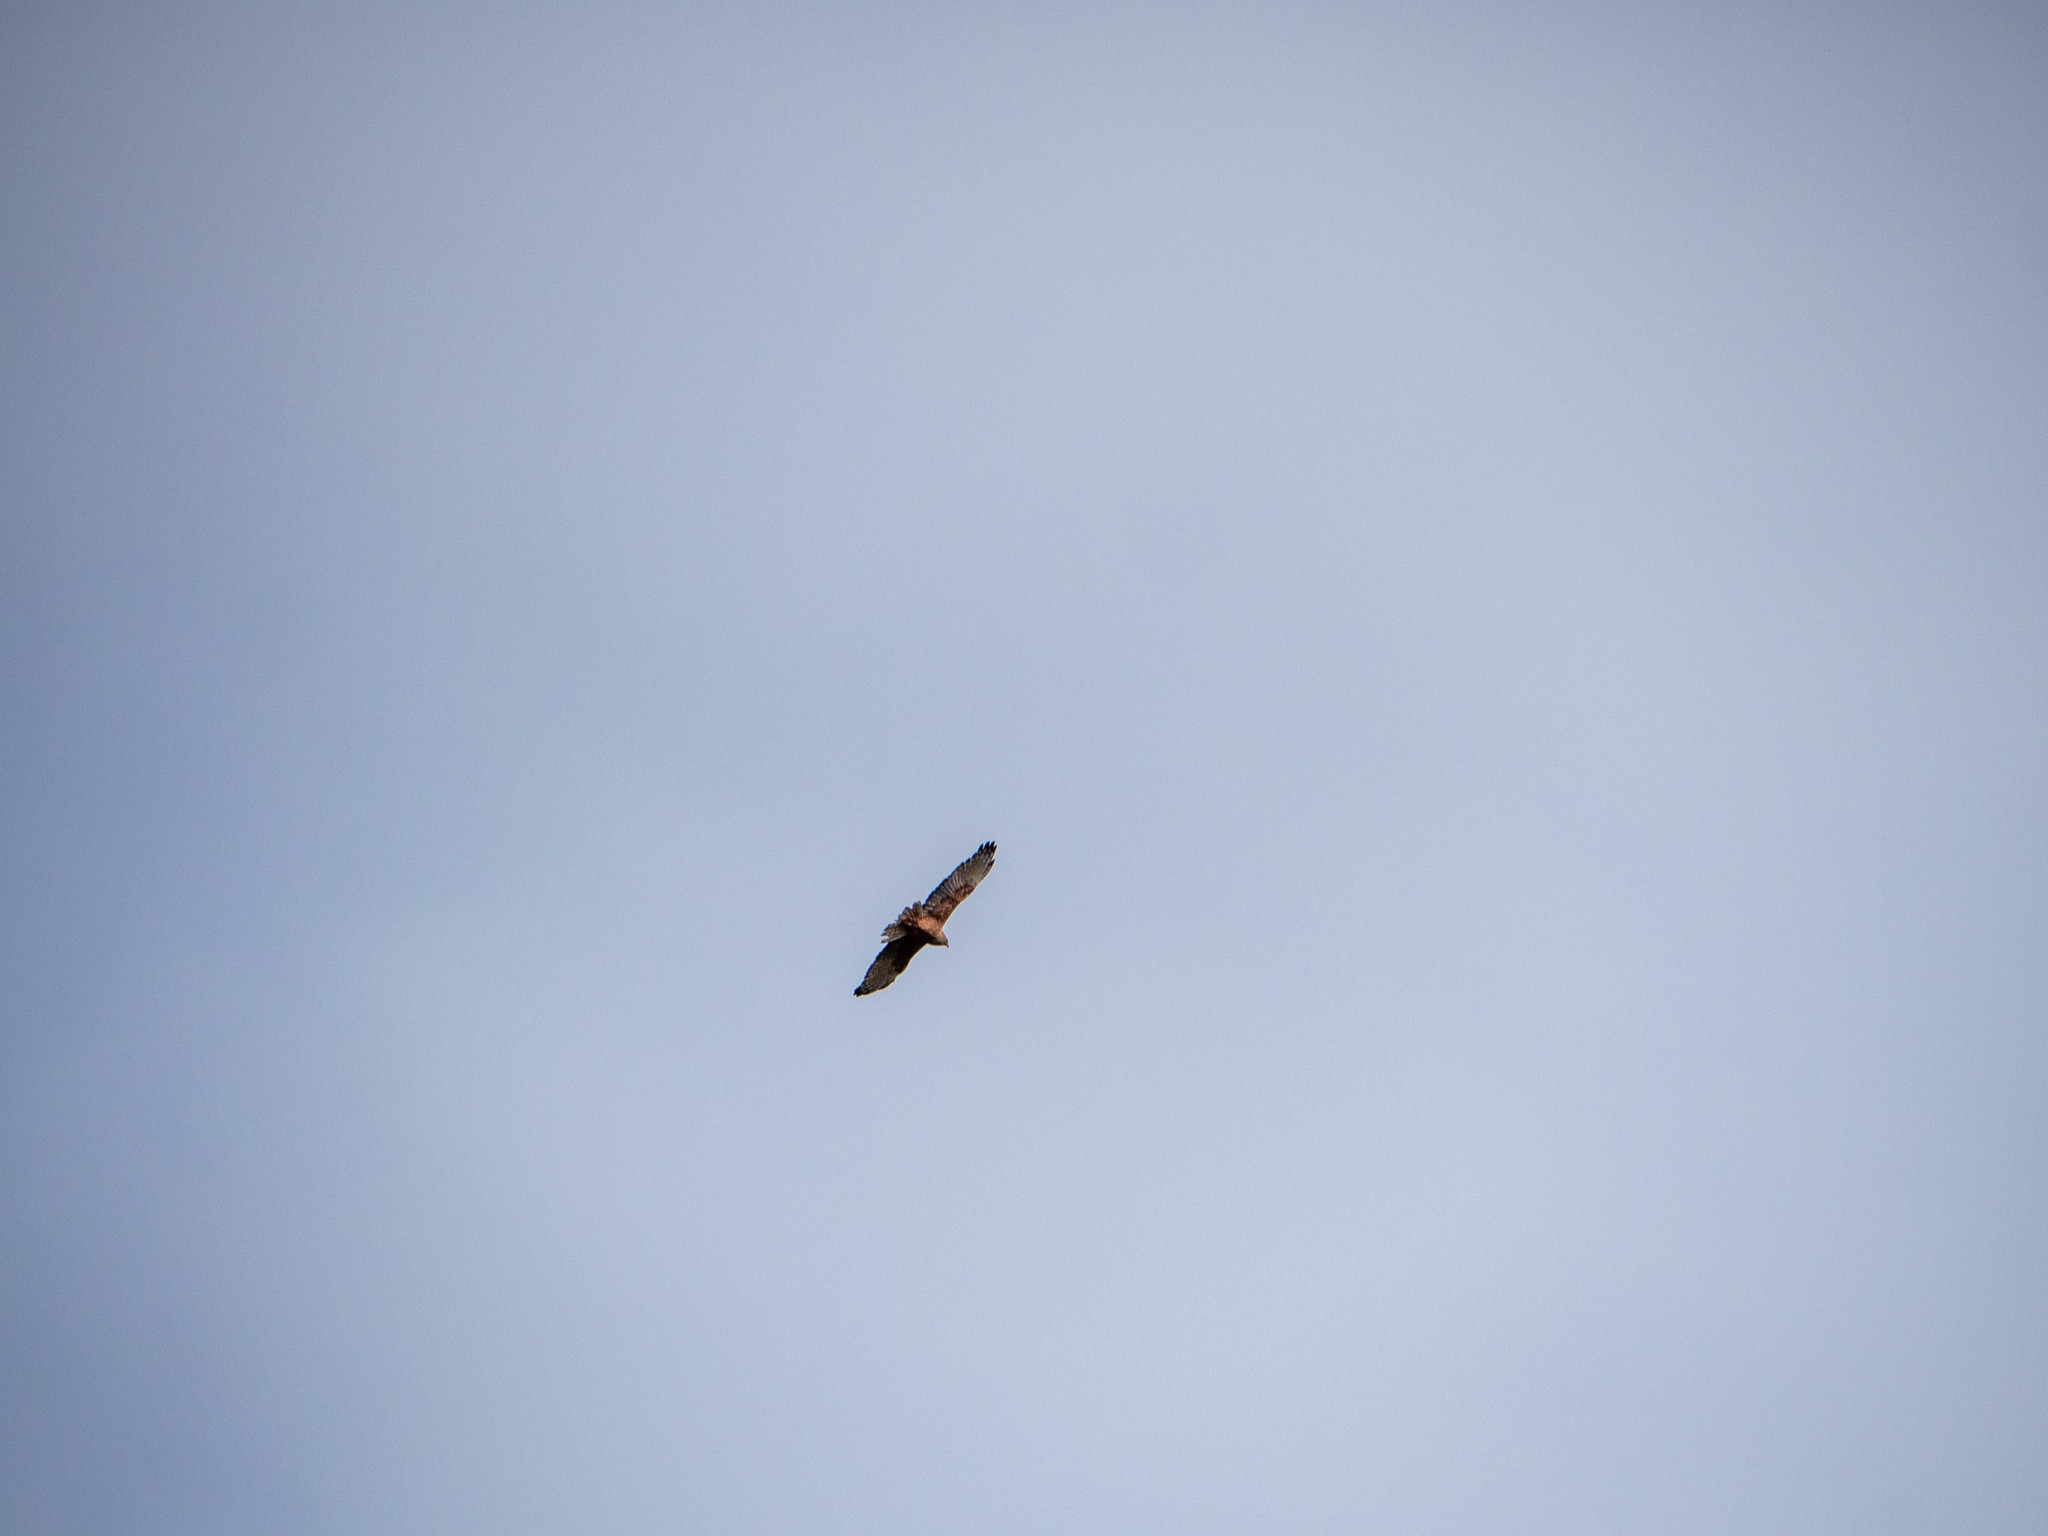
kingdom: Animalia
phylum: Chordata
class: Aves
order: Accipitriformes
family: Accipitridae
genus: Circus
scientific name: Circus approximans
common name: Swamp harrier
